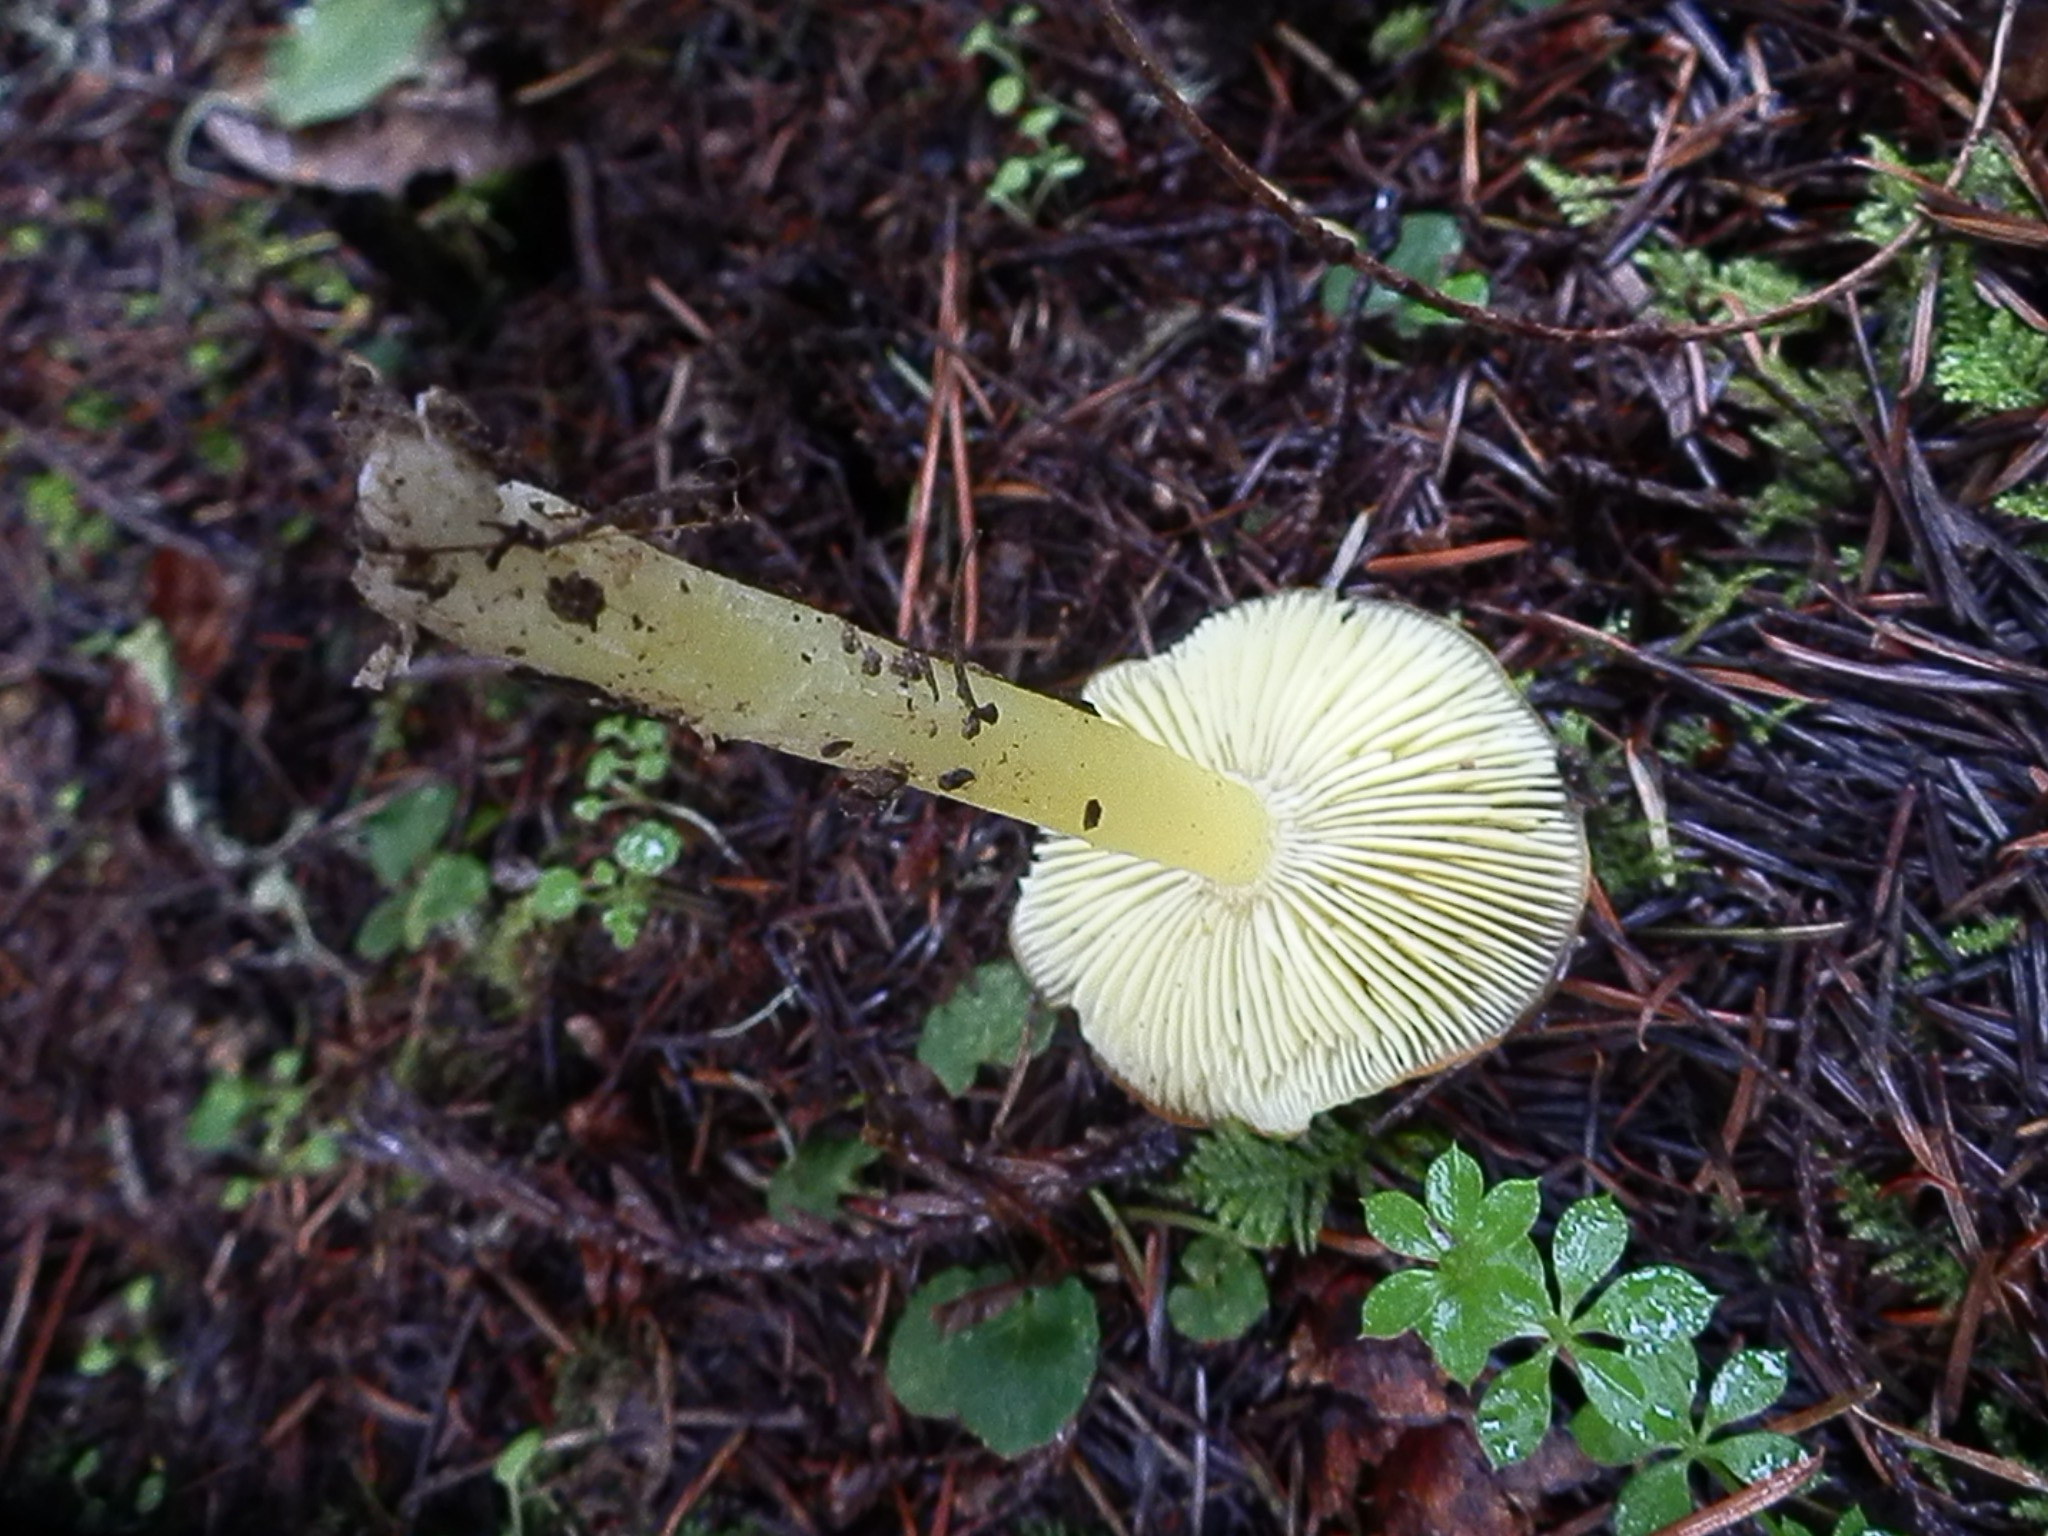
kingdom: Fungi
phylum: Basidiomycota
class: Agaricomycetes
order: Agaricales
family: Hygrophoraceae
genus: Hygrocybe
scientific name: Hygrocybe flavescens
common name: Golden waxy cap
